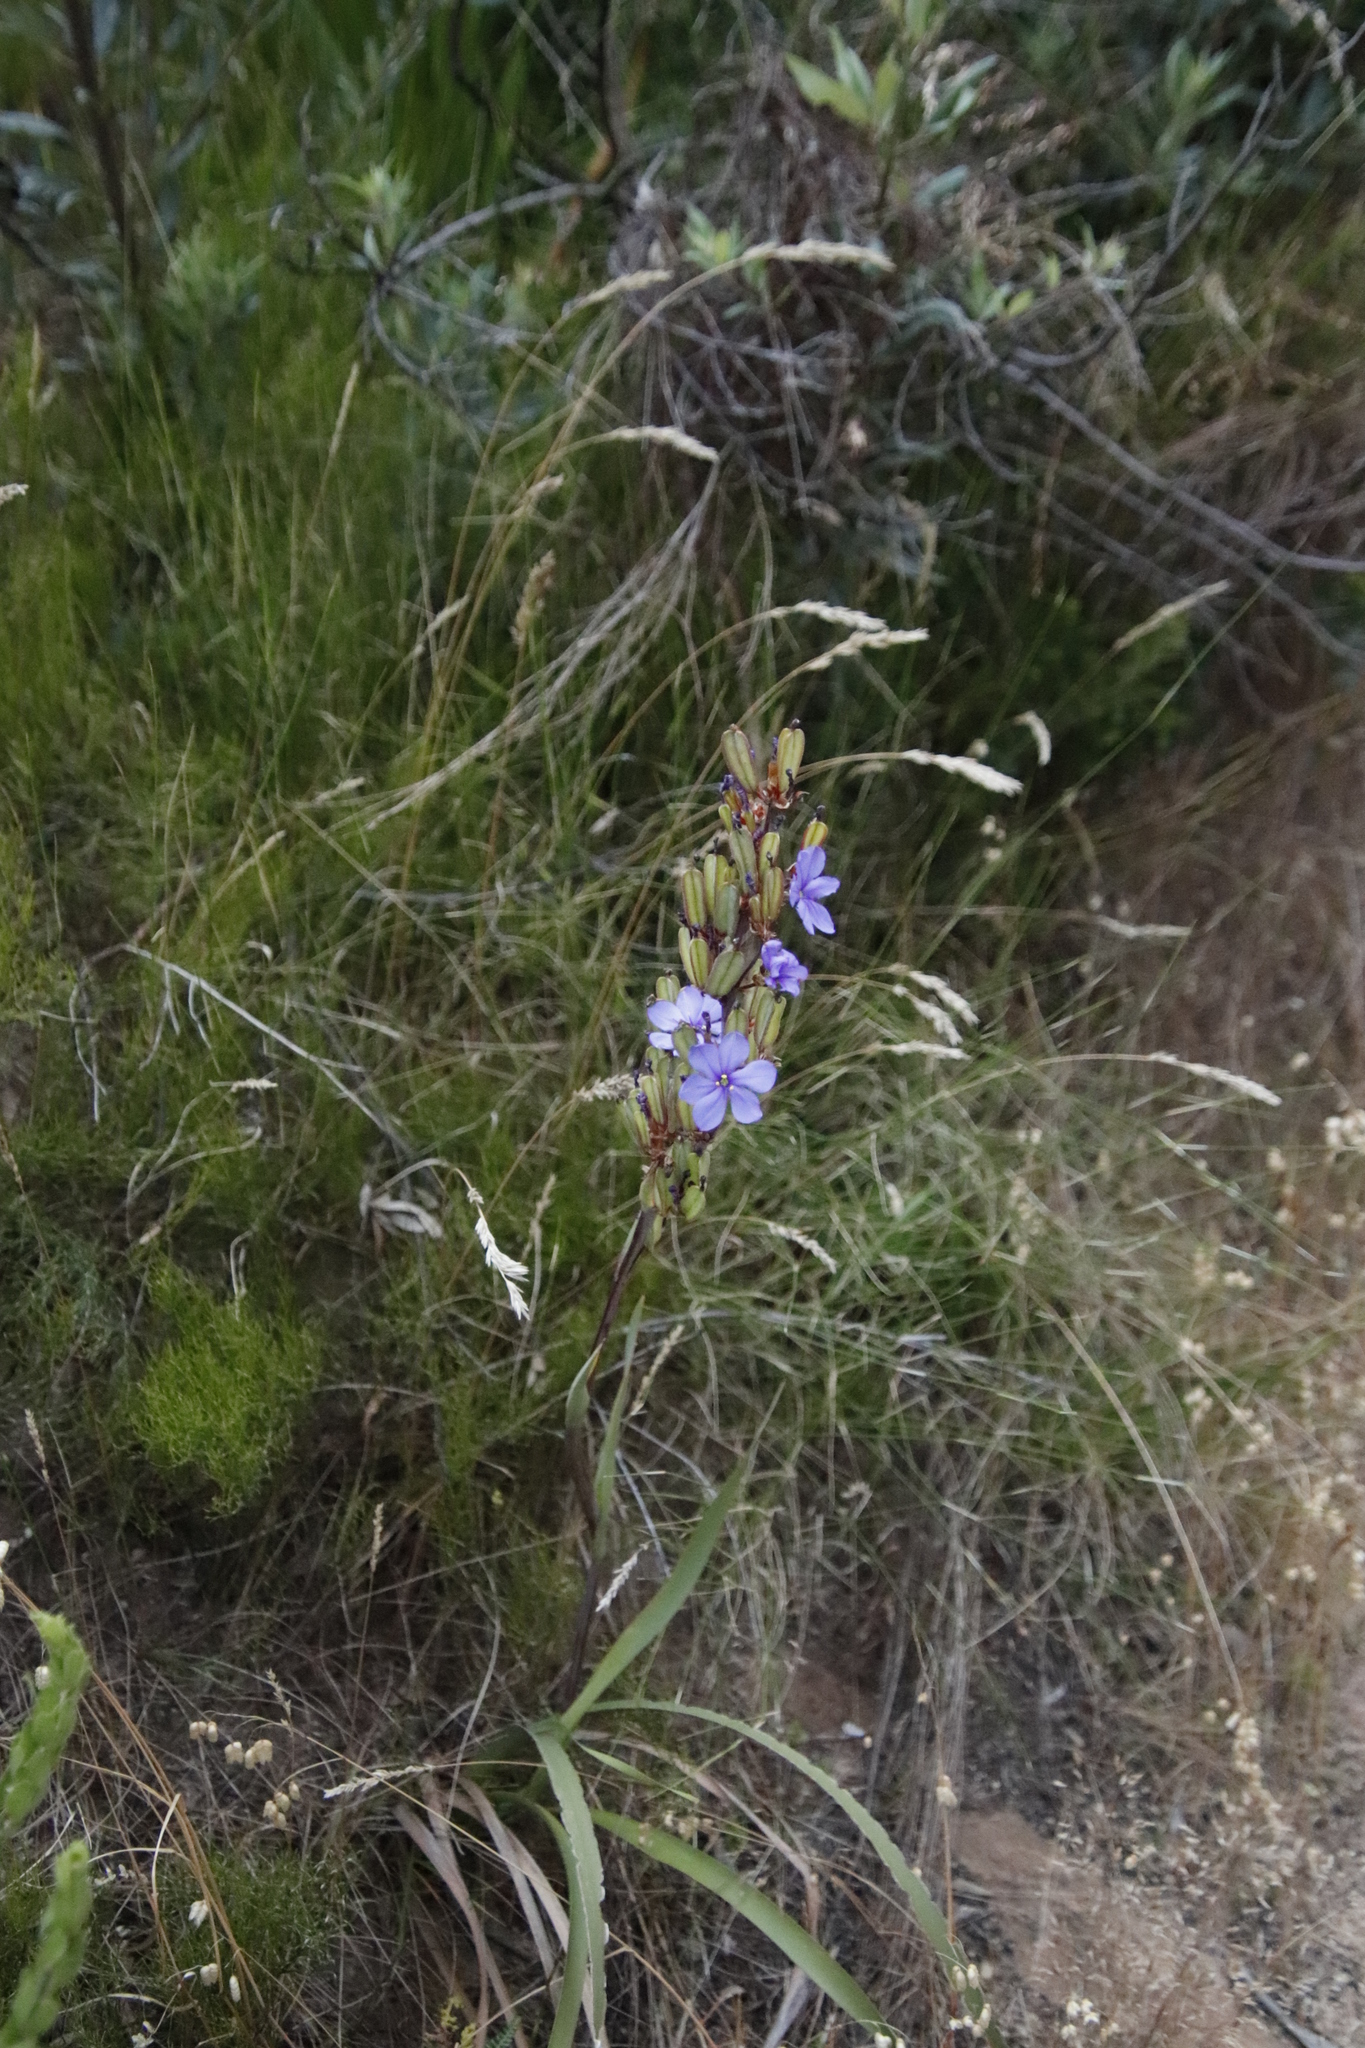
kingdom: Plantae
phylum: Tracheophyta
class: Liliopsida
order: Asparagales
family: Iridaceae
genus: Aristea
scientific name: Aristea bakeri
